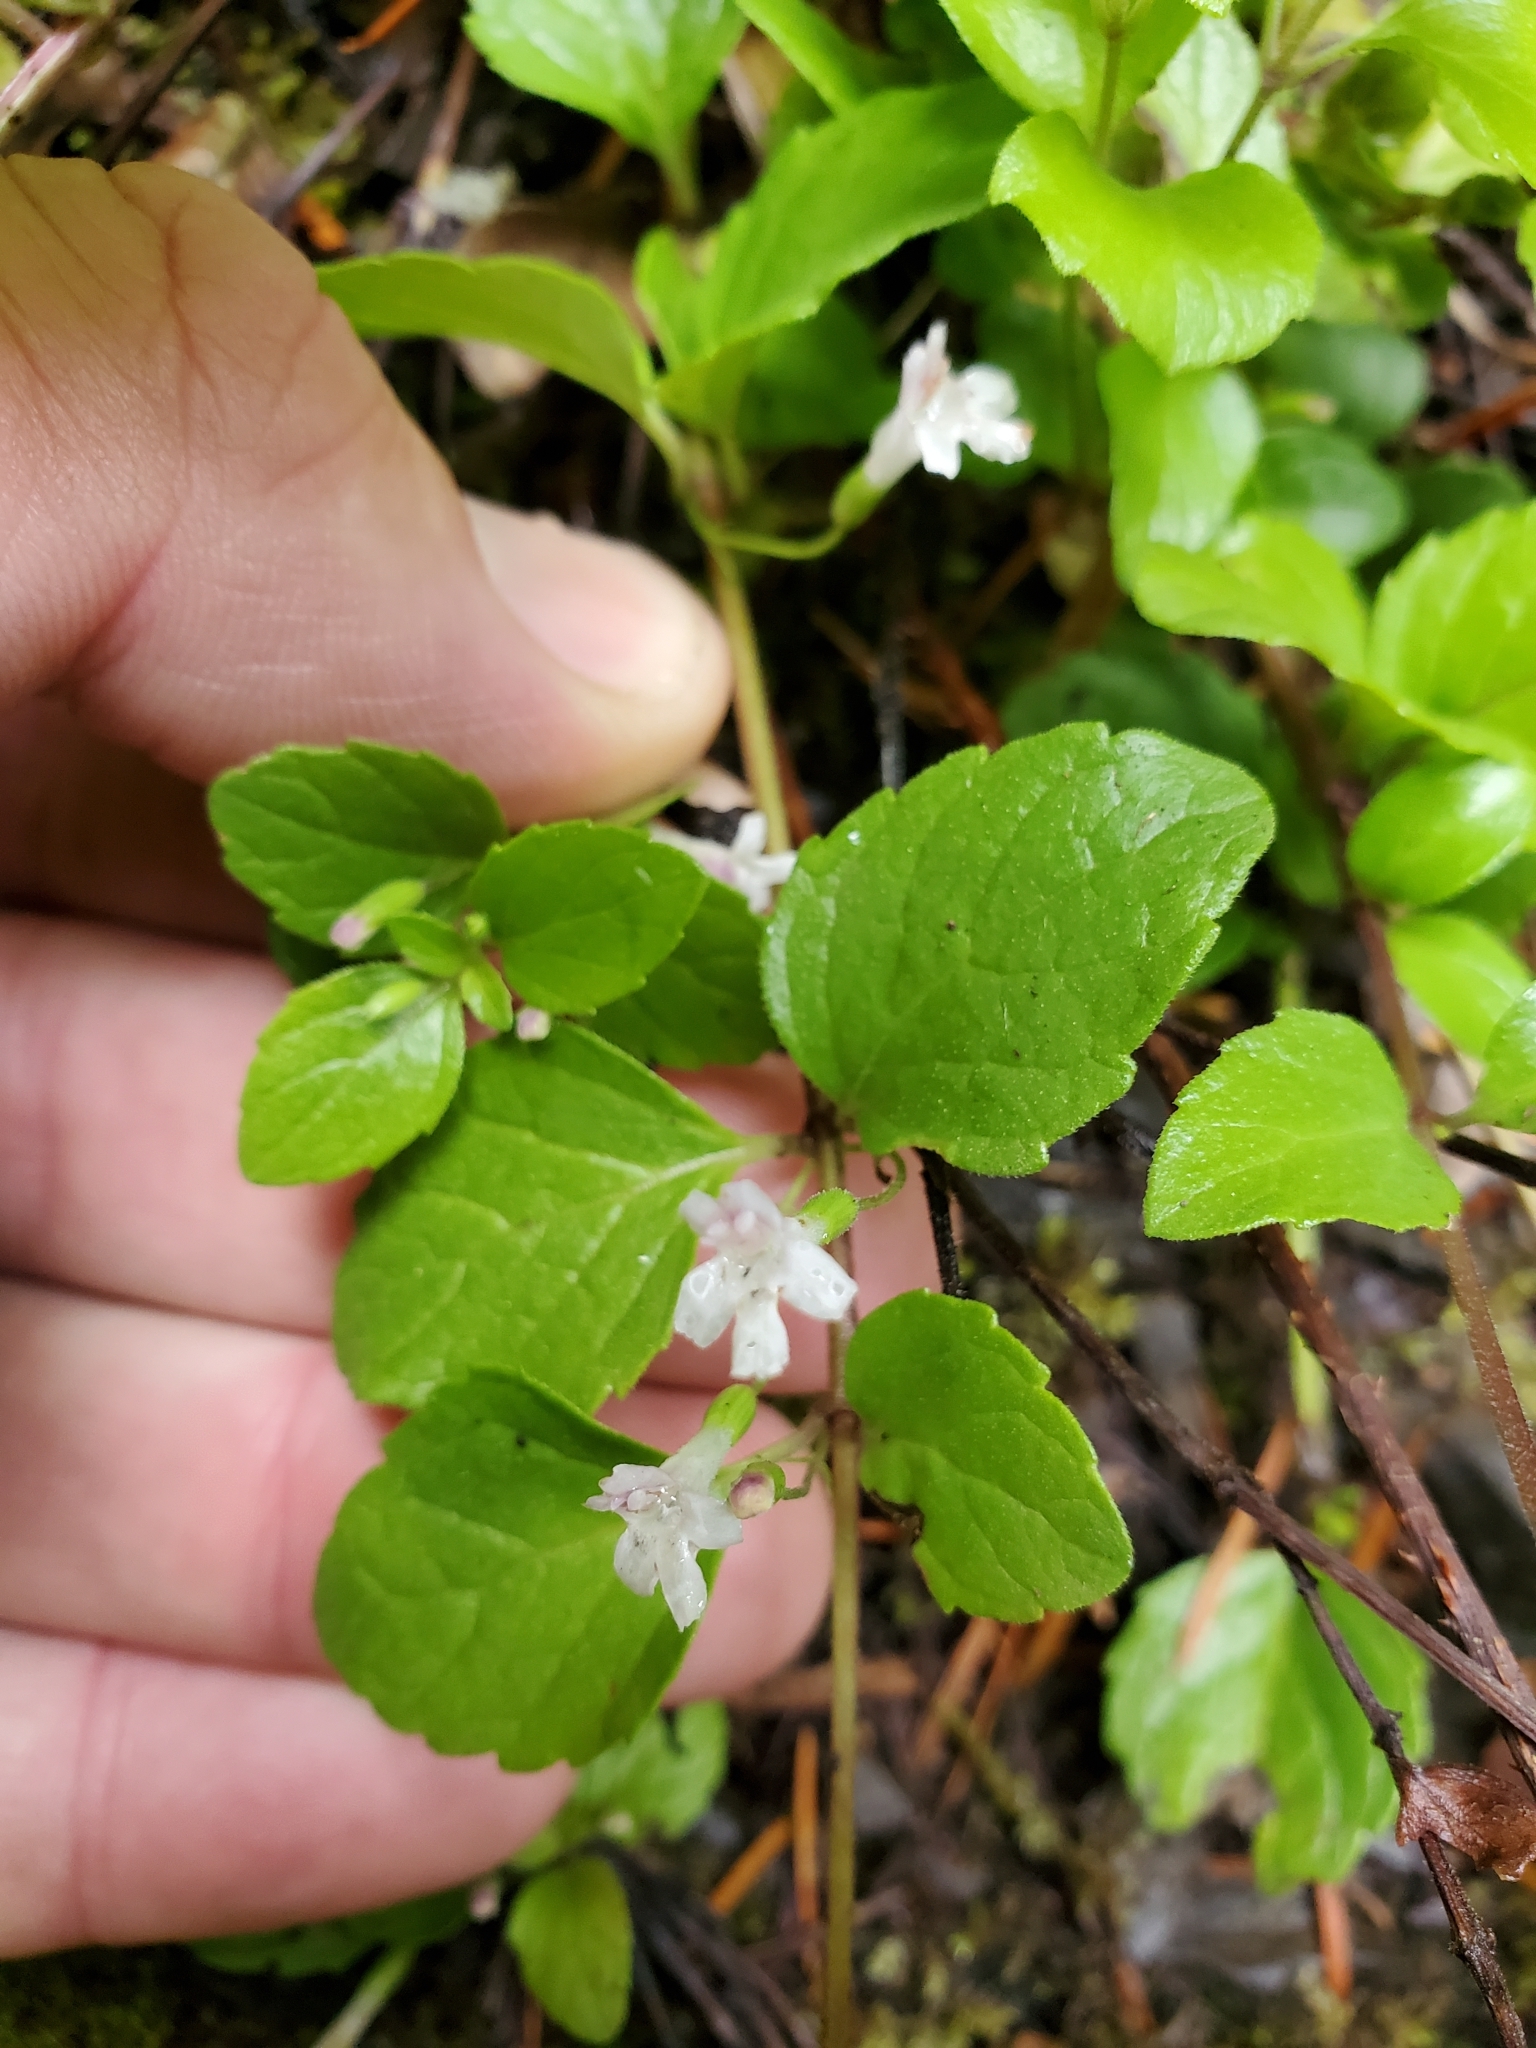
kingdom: Plantae
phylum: Tracheophyta
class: Magnoliopsida
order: Lamiales
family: Lamiaceae
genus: Micromeria
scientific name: Micromeria douglasii
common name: Yerba buena
